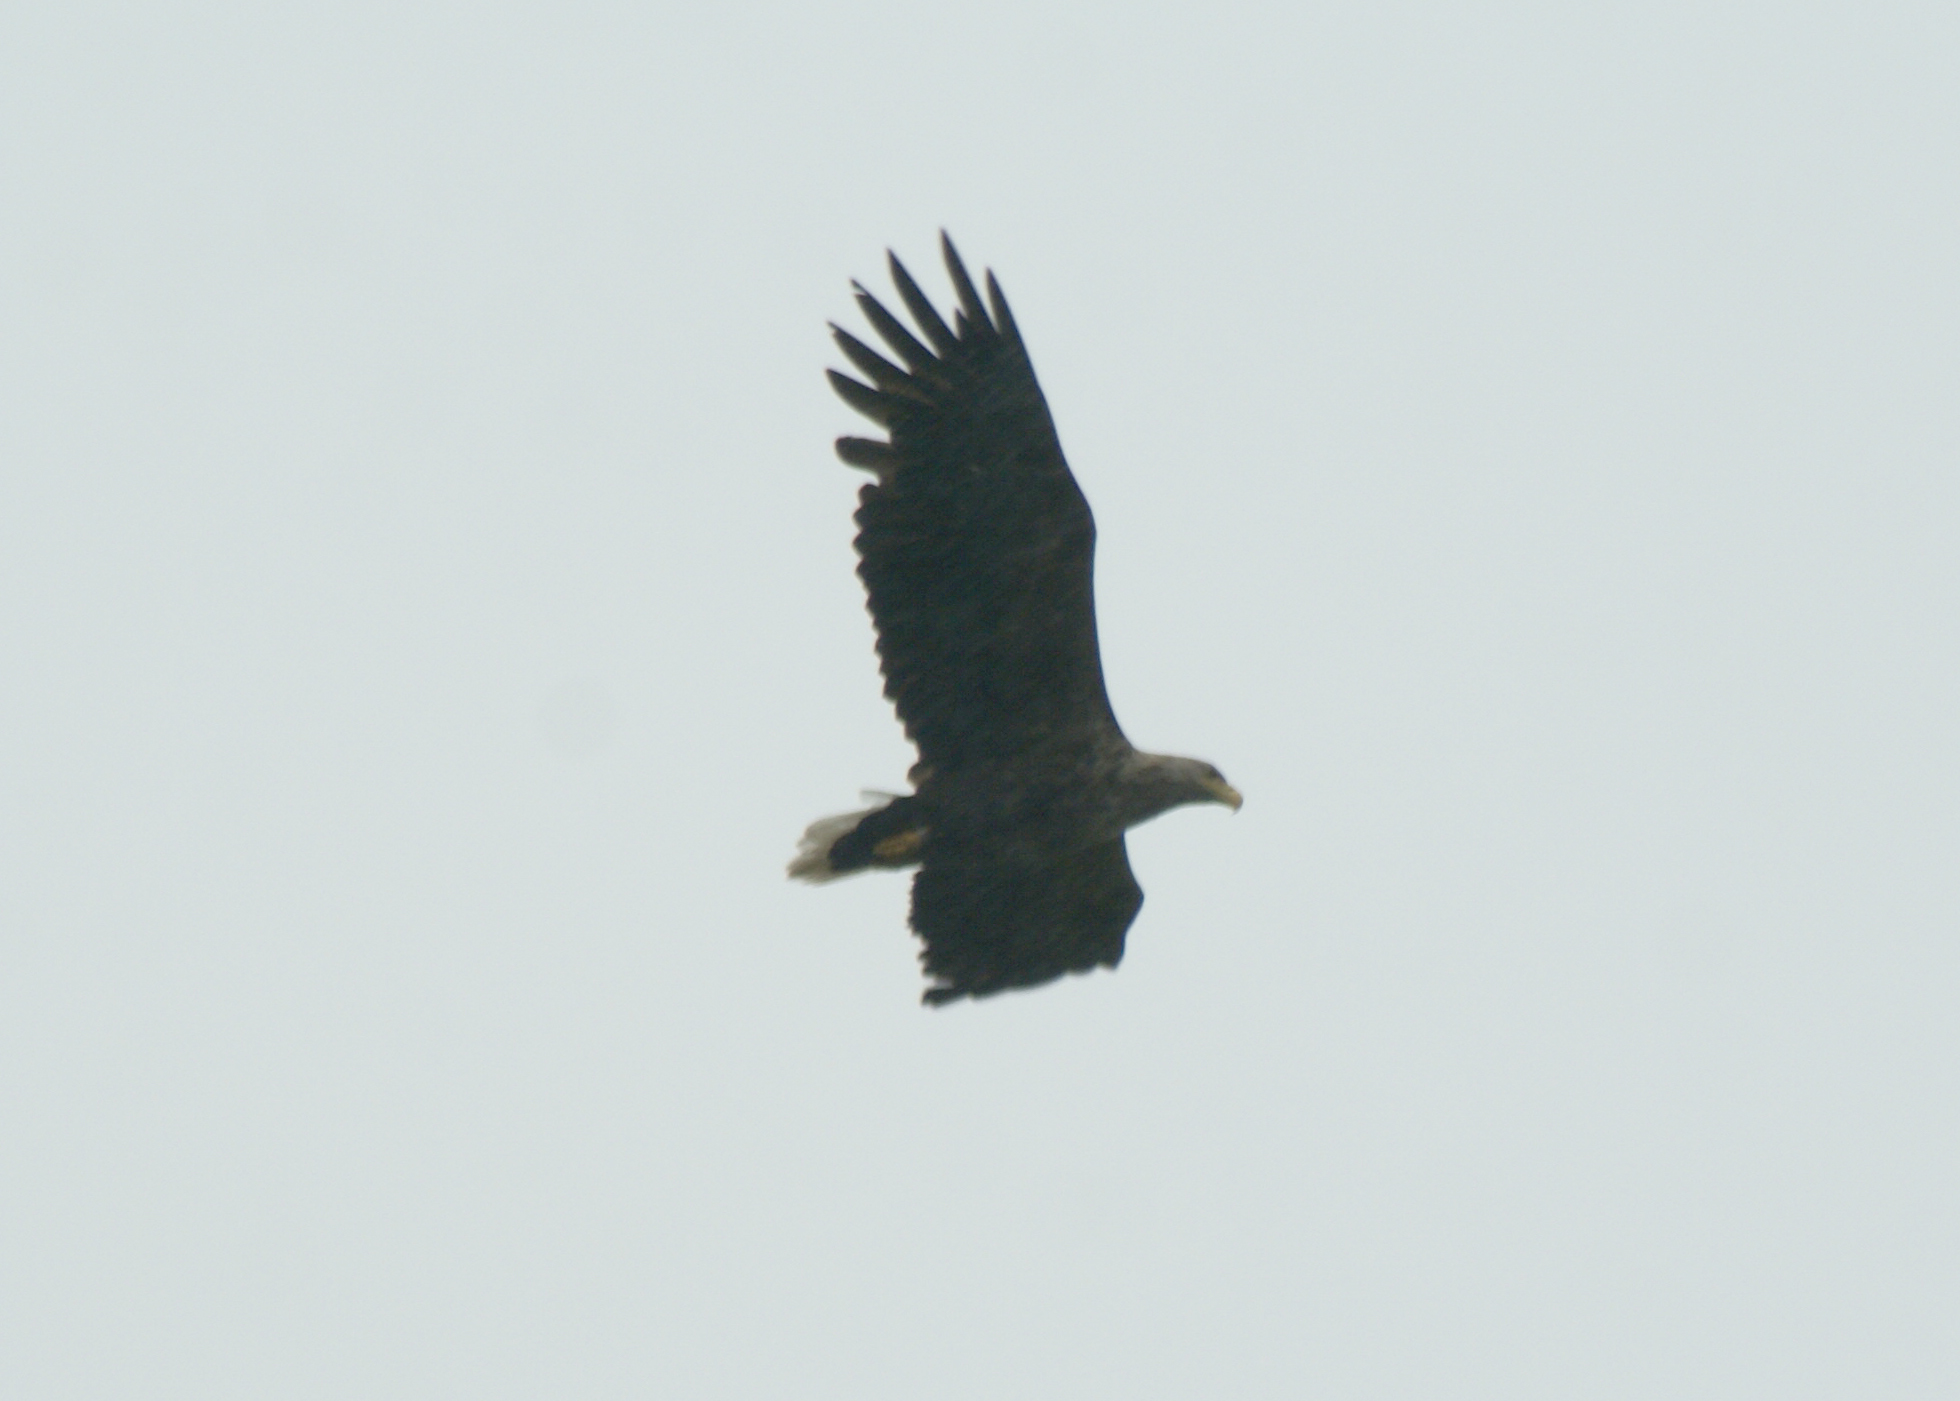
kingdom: Animalia
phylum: Chordata
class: Aves
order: Accipitriformes
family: Accipitridae
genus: Haliaeetus
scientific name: Haliaeetus albicilla
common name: White-tailed eagle
